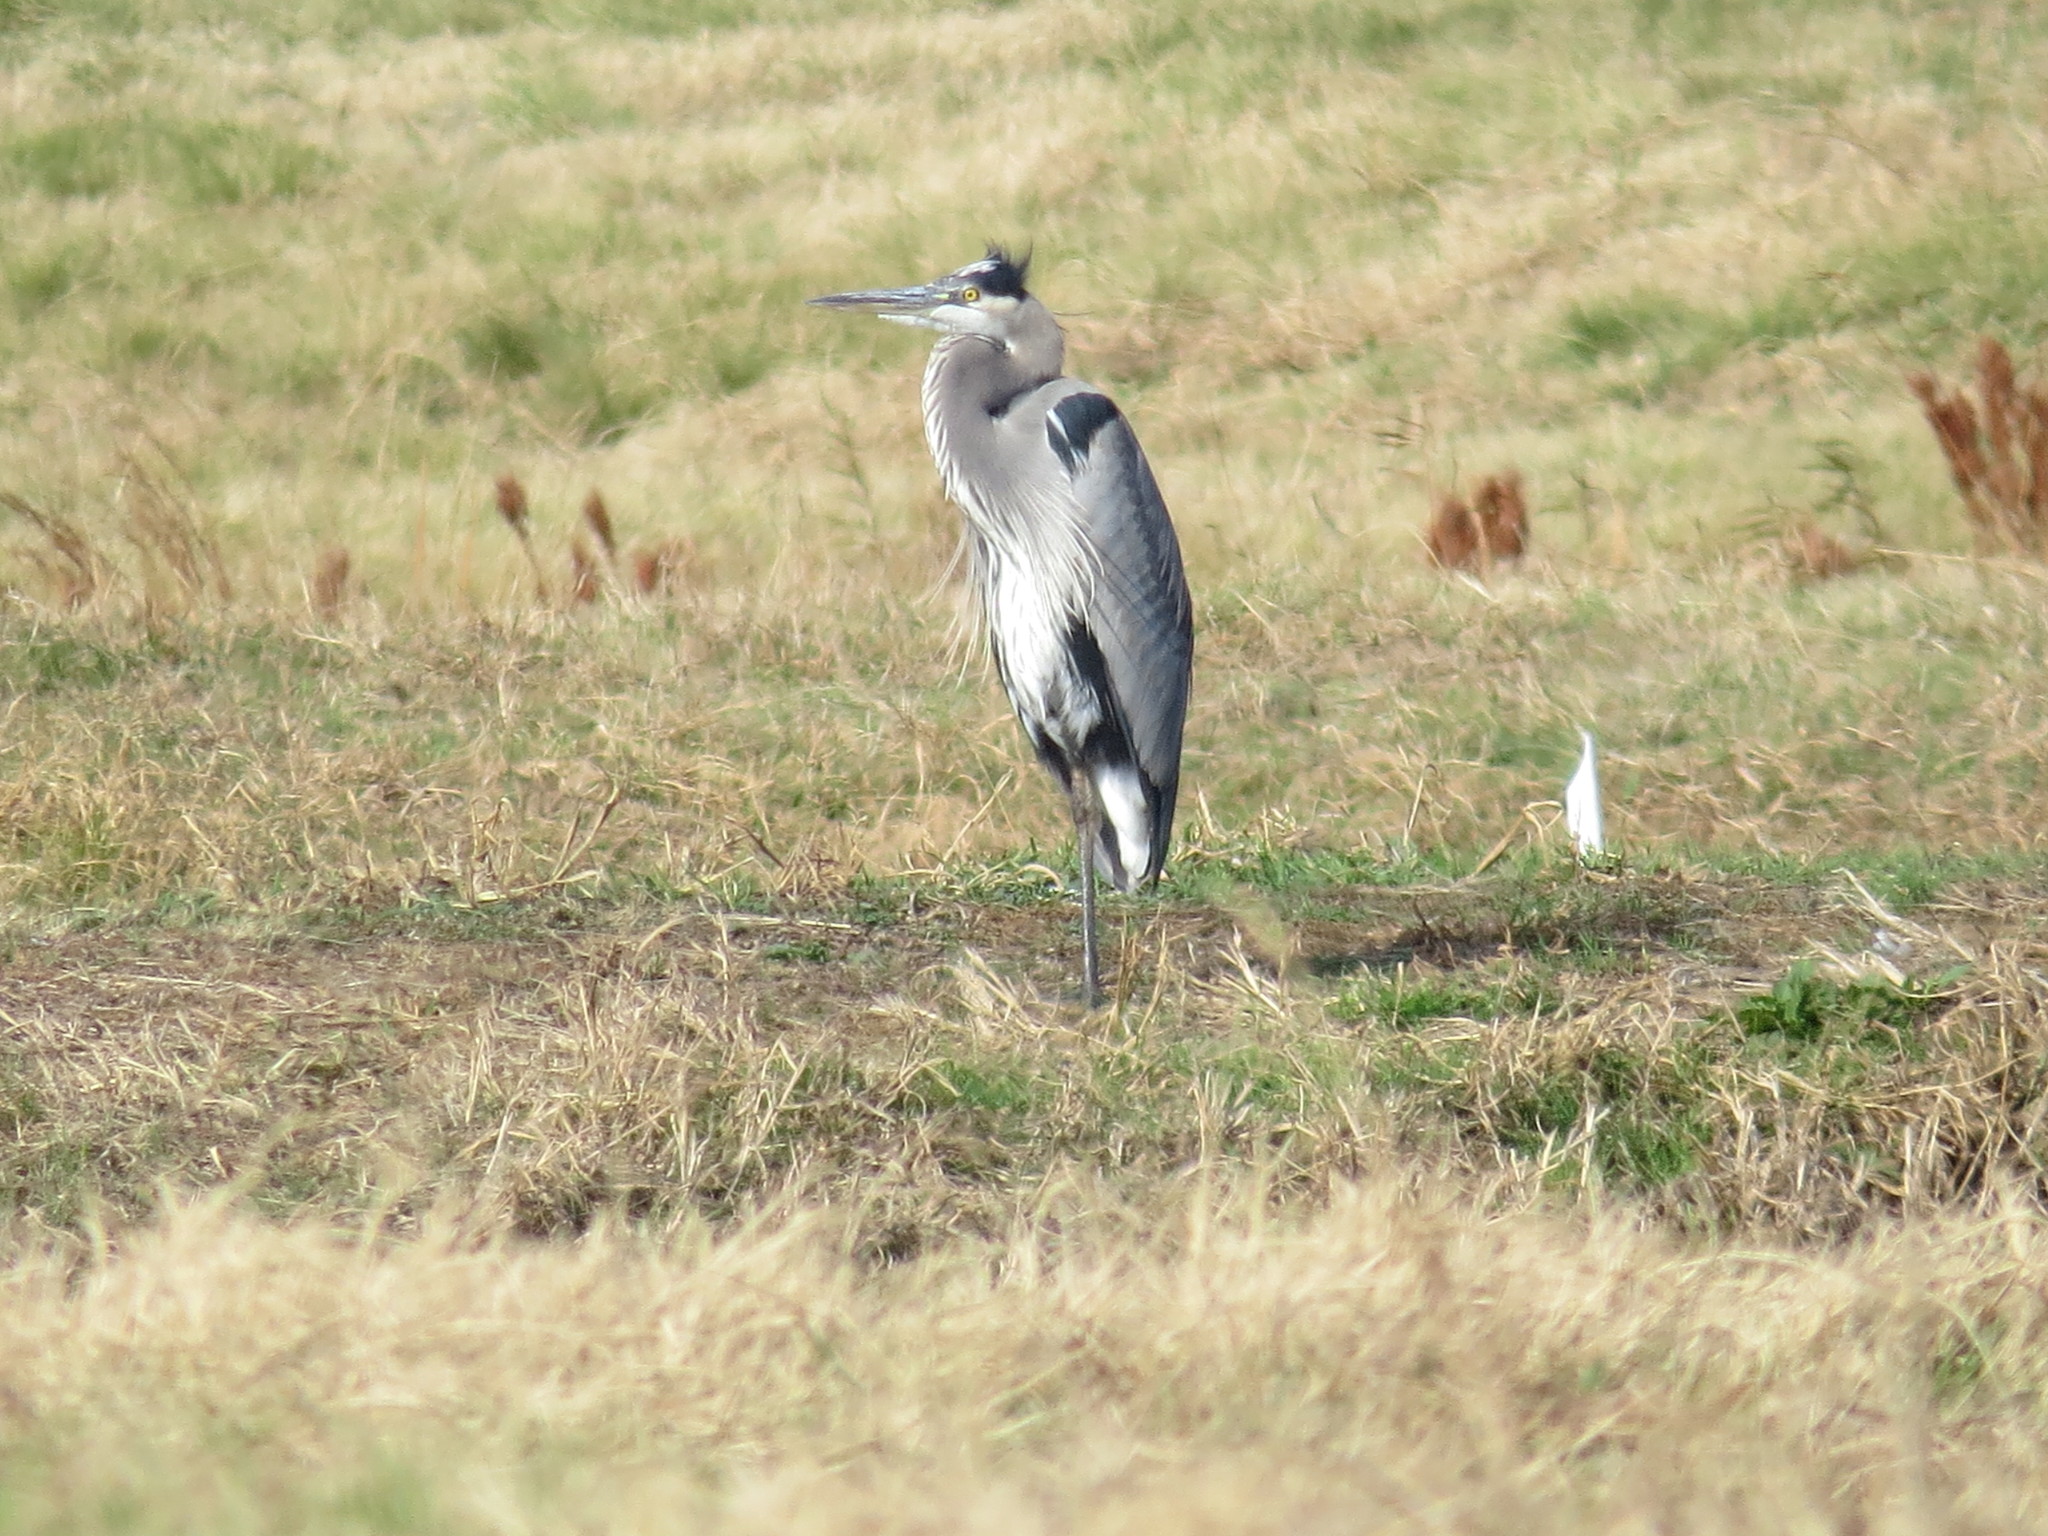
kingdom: Animalia
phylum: Chordata
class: Aves
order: Pelecaniformes
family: Ardeidae
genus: Ardea
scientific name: Ardea herodias
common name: Great blue heron
